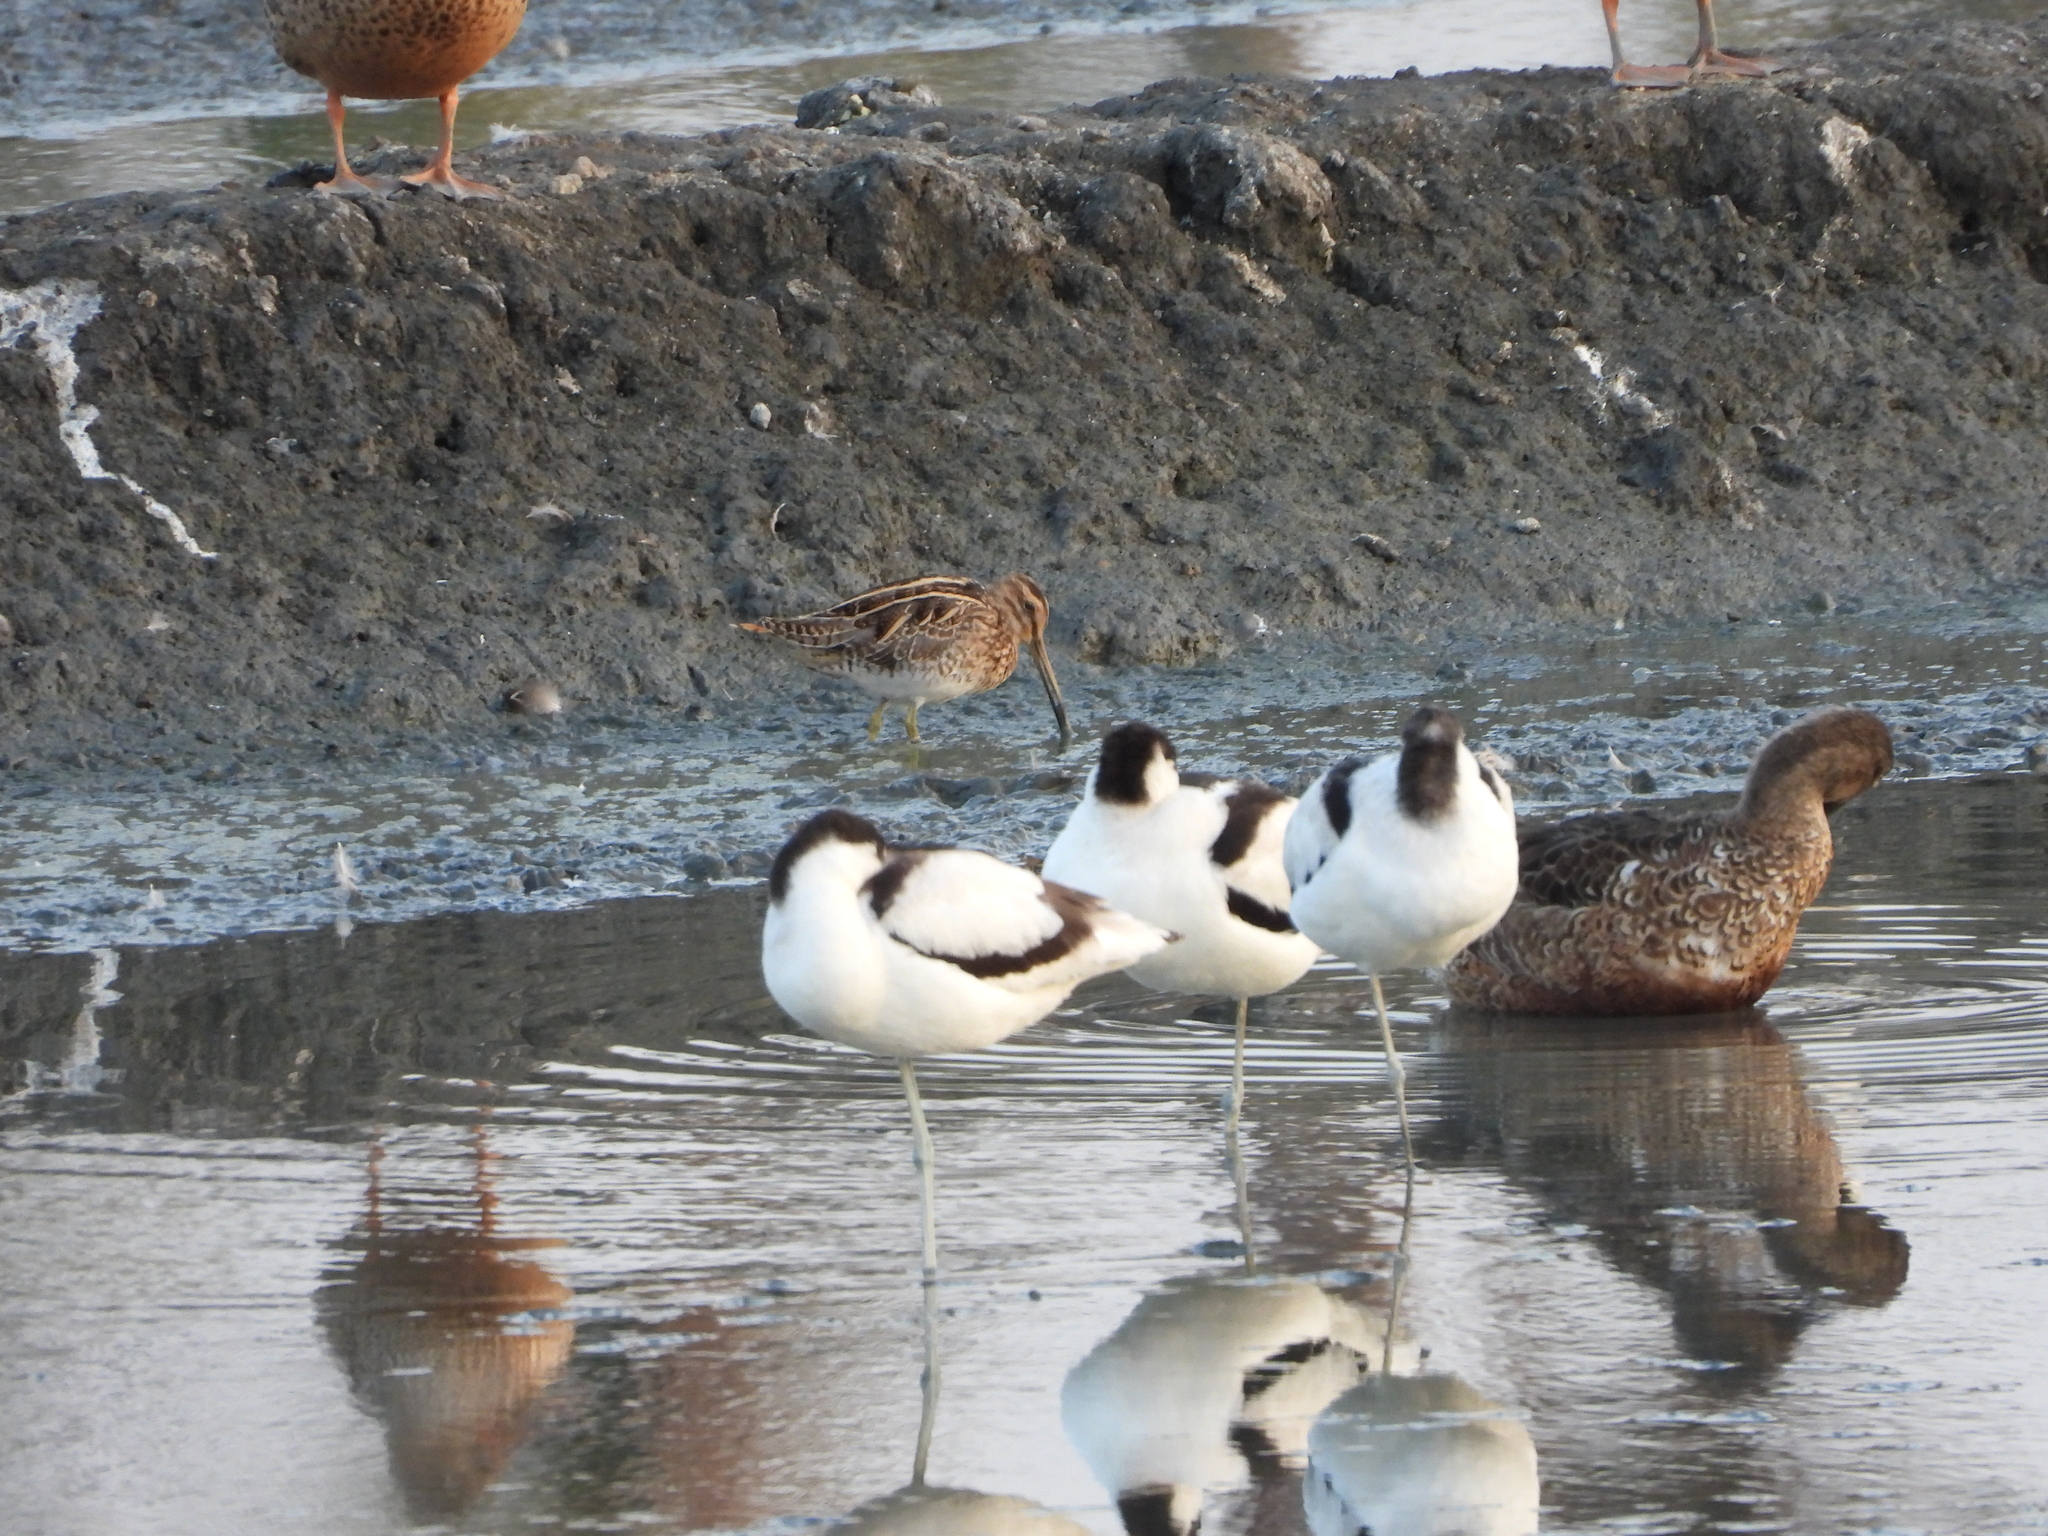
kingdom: Animalia
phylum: Chordata
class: Aves
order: Charadriiformes
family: Recurvirostridae
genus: Recurvirostra
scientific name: Recurvirostra avosetta
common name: Pied avocet
